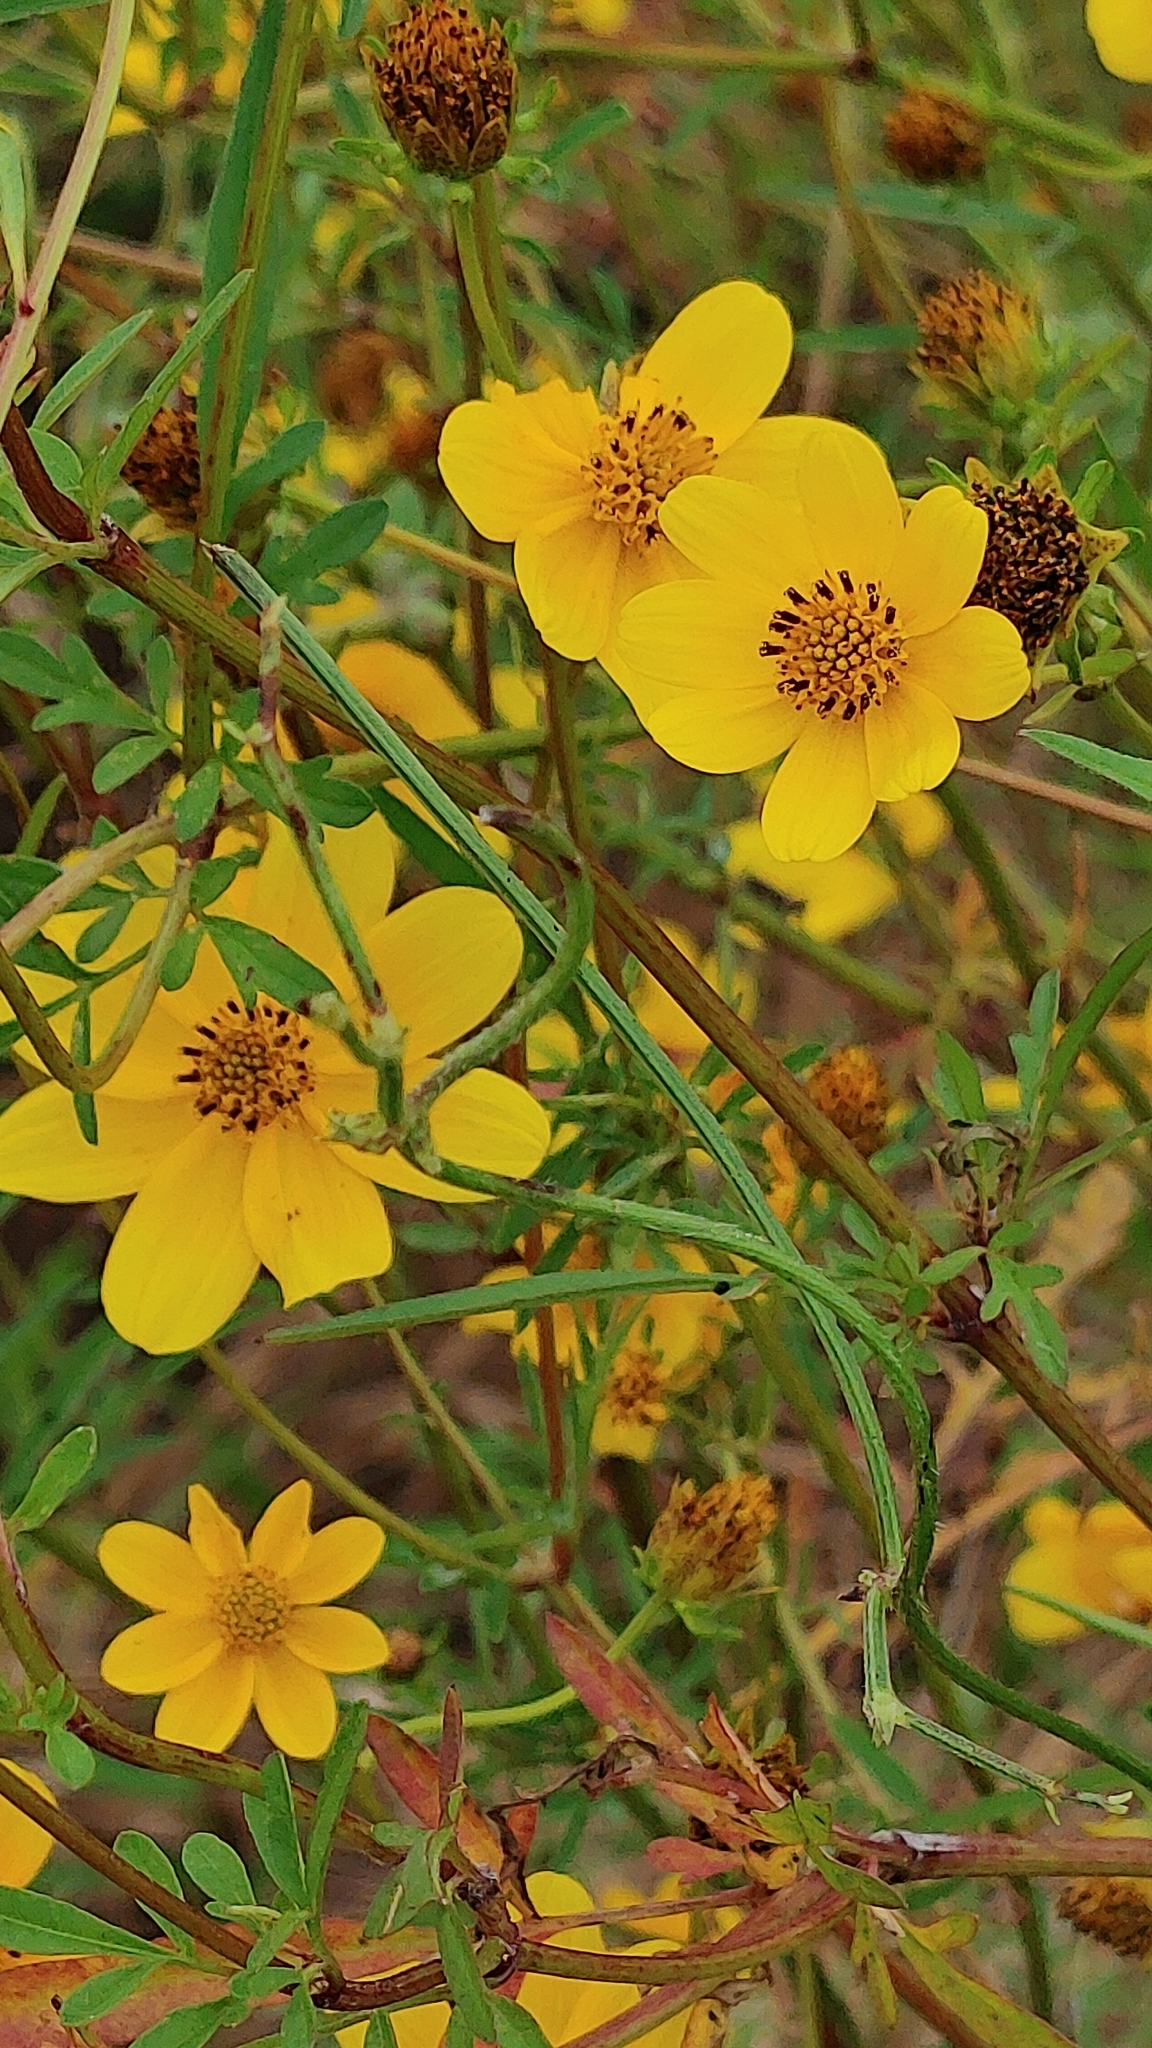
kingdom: Plantae
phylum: Tracheophyta
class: Magnoliopsida
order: Asterales
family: Asteraceae
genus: Bidens
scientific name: Bidens mitis
